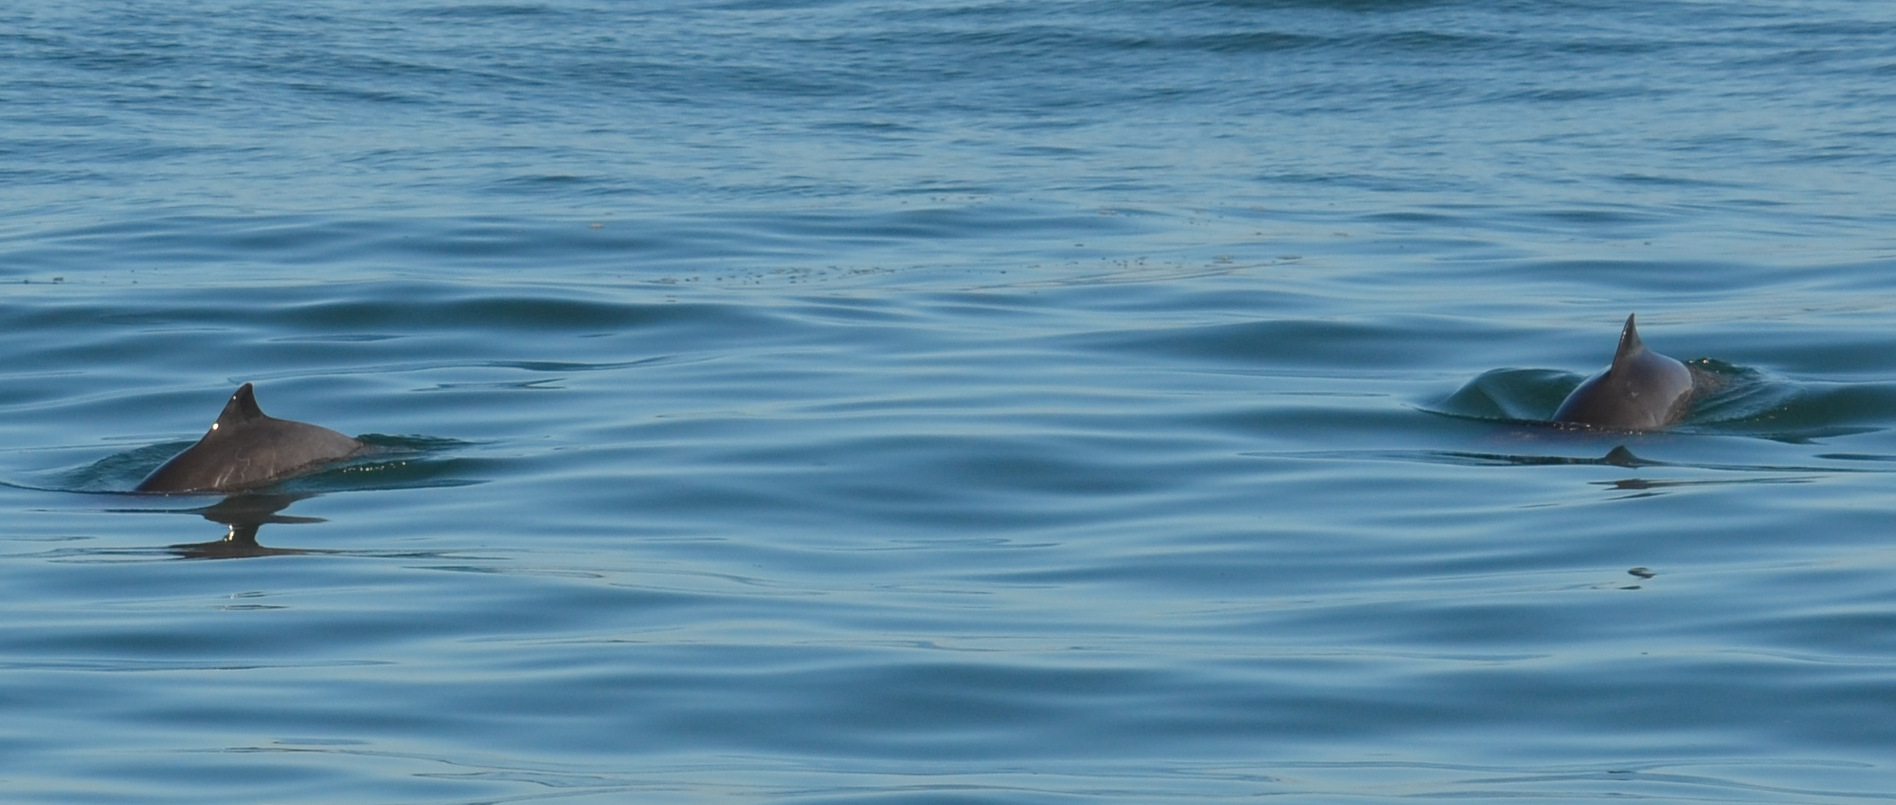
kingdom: Animalia
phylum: Chordata
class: Mammalia
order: Cetacea
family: Phocoenidae
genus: Phocoena
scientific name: Phocoena phocoena
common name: Harbor porpoise
